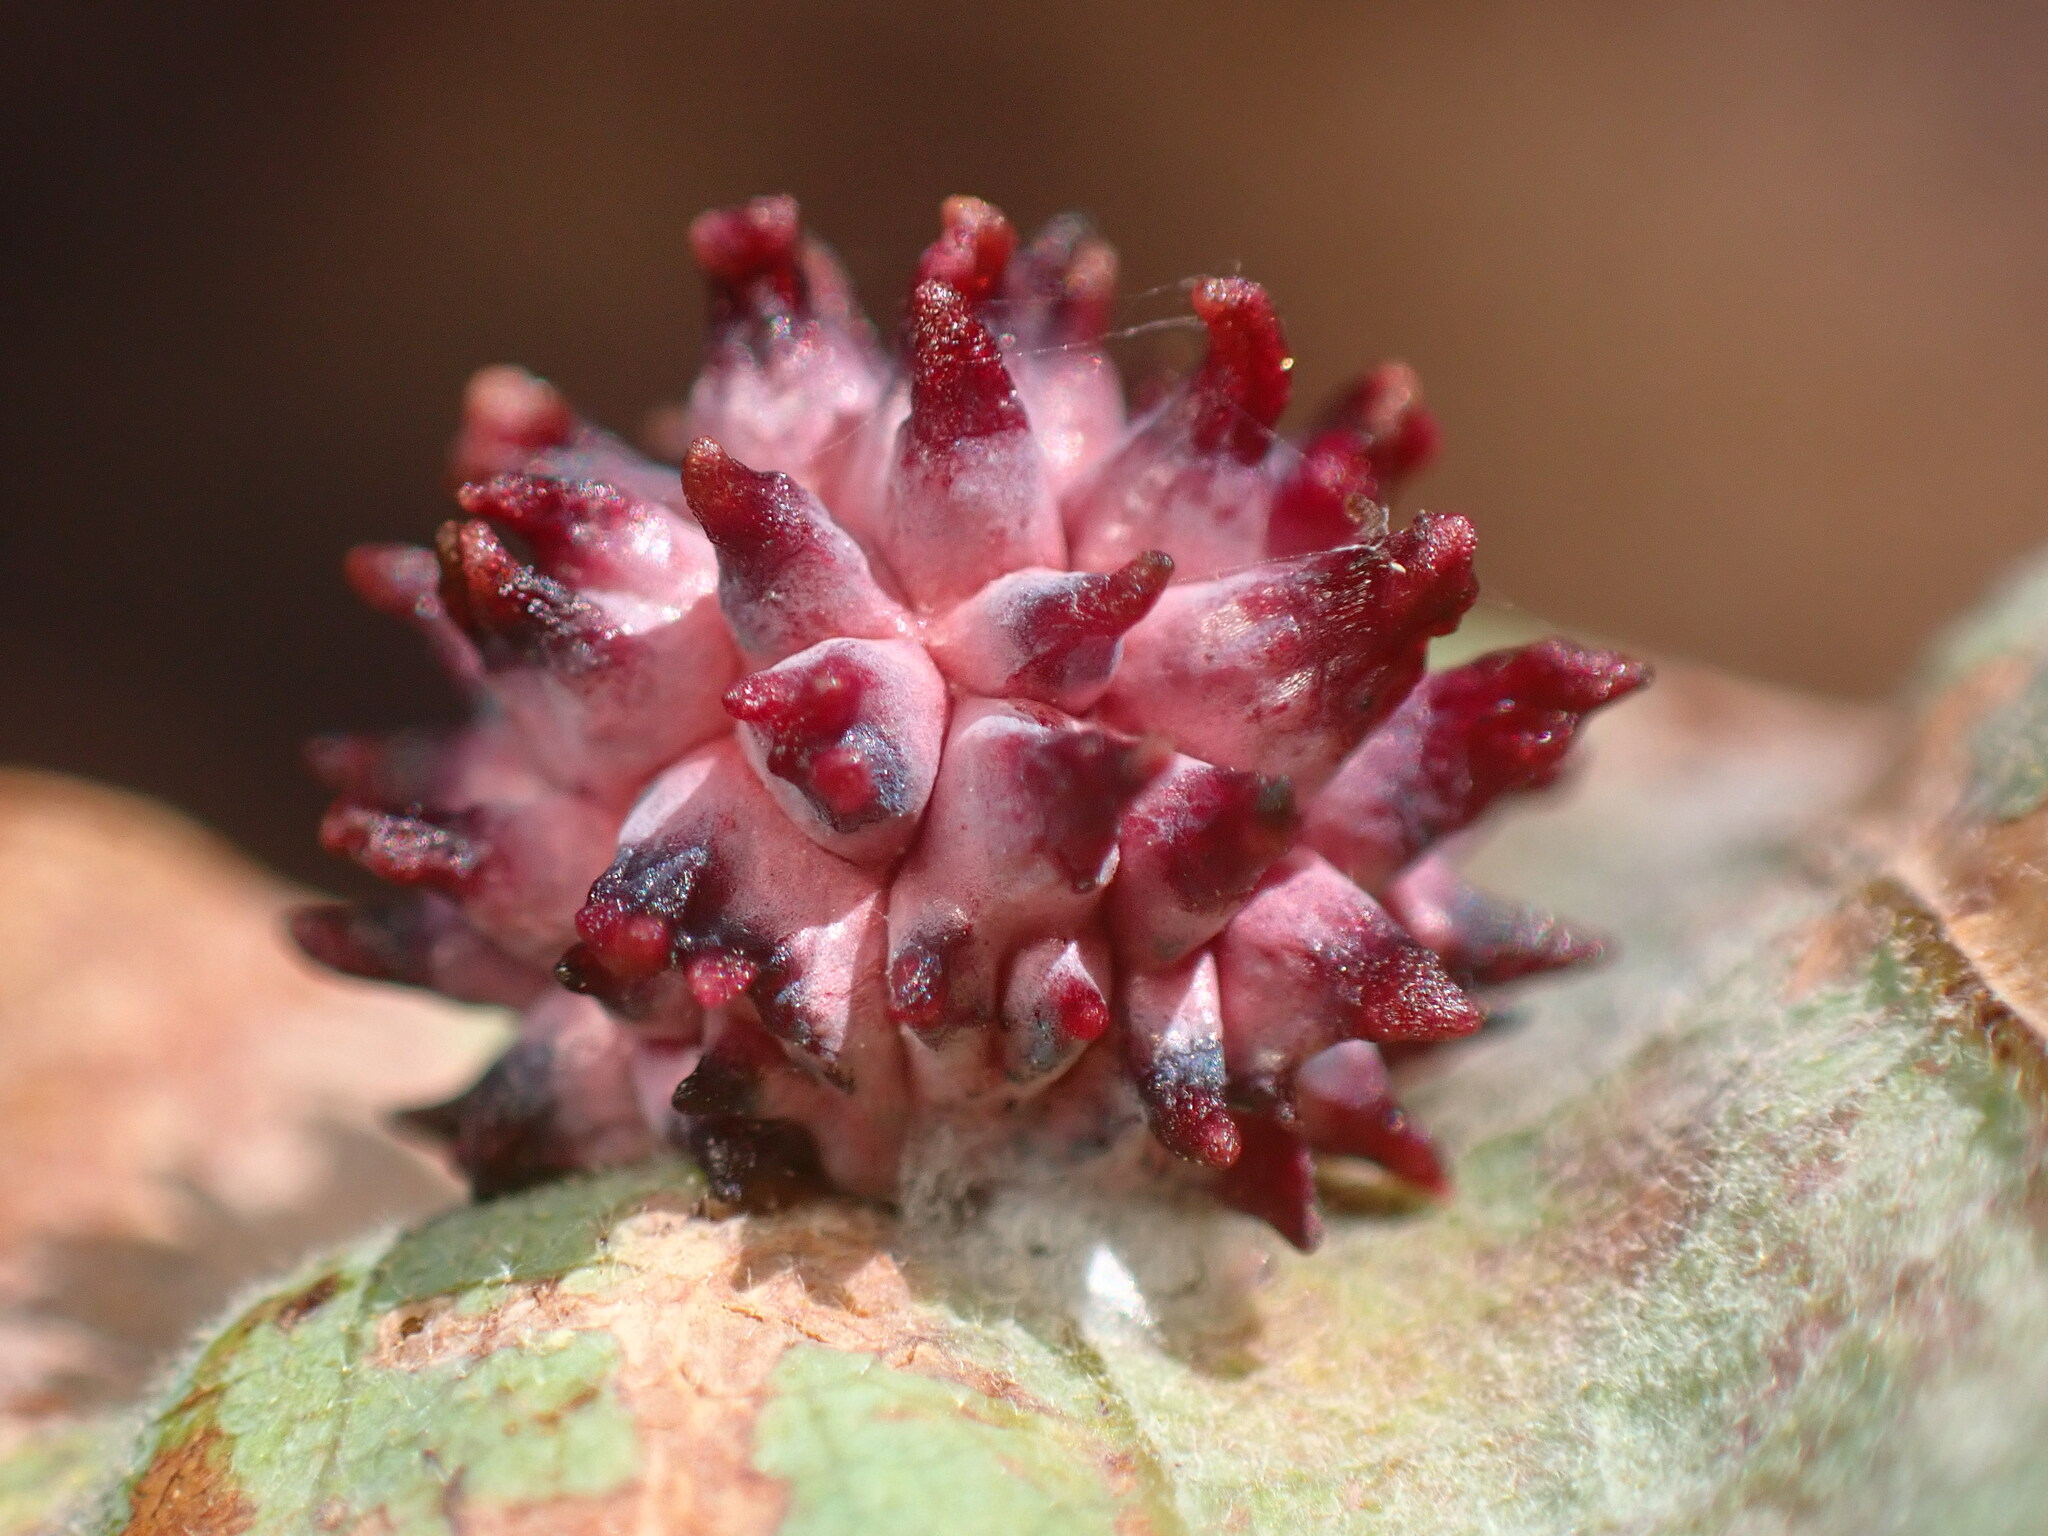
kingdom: Animalia
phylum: Arthropoda
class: Insecta
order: Hymenoptera
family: Cynipidae
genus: Cynips
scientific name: Cynips
